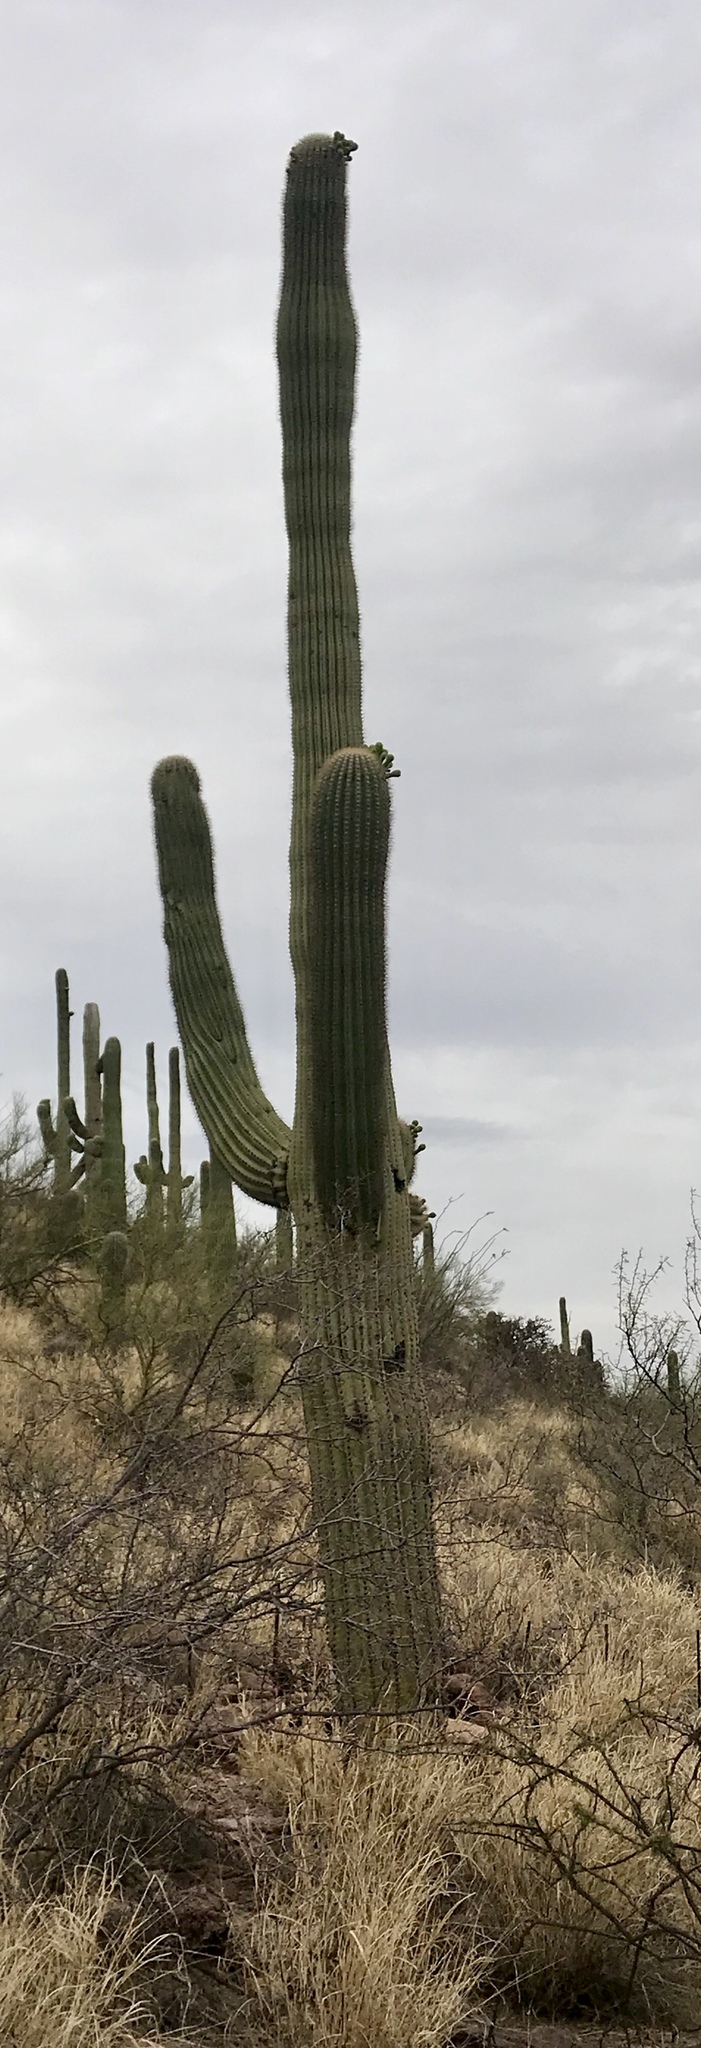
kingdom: Plantae
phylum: Tracheophyta
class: Magnoliopsida
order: Caryophyllales
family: Cactaceae
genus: Carnegiea
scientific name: Carnegiea gigantea
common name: Saguaro
